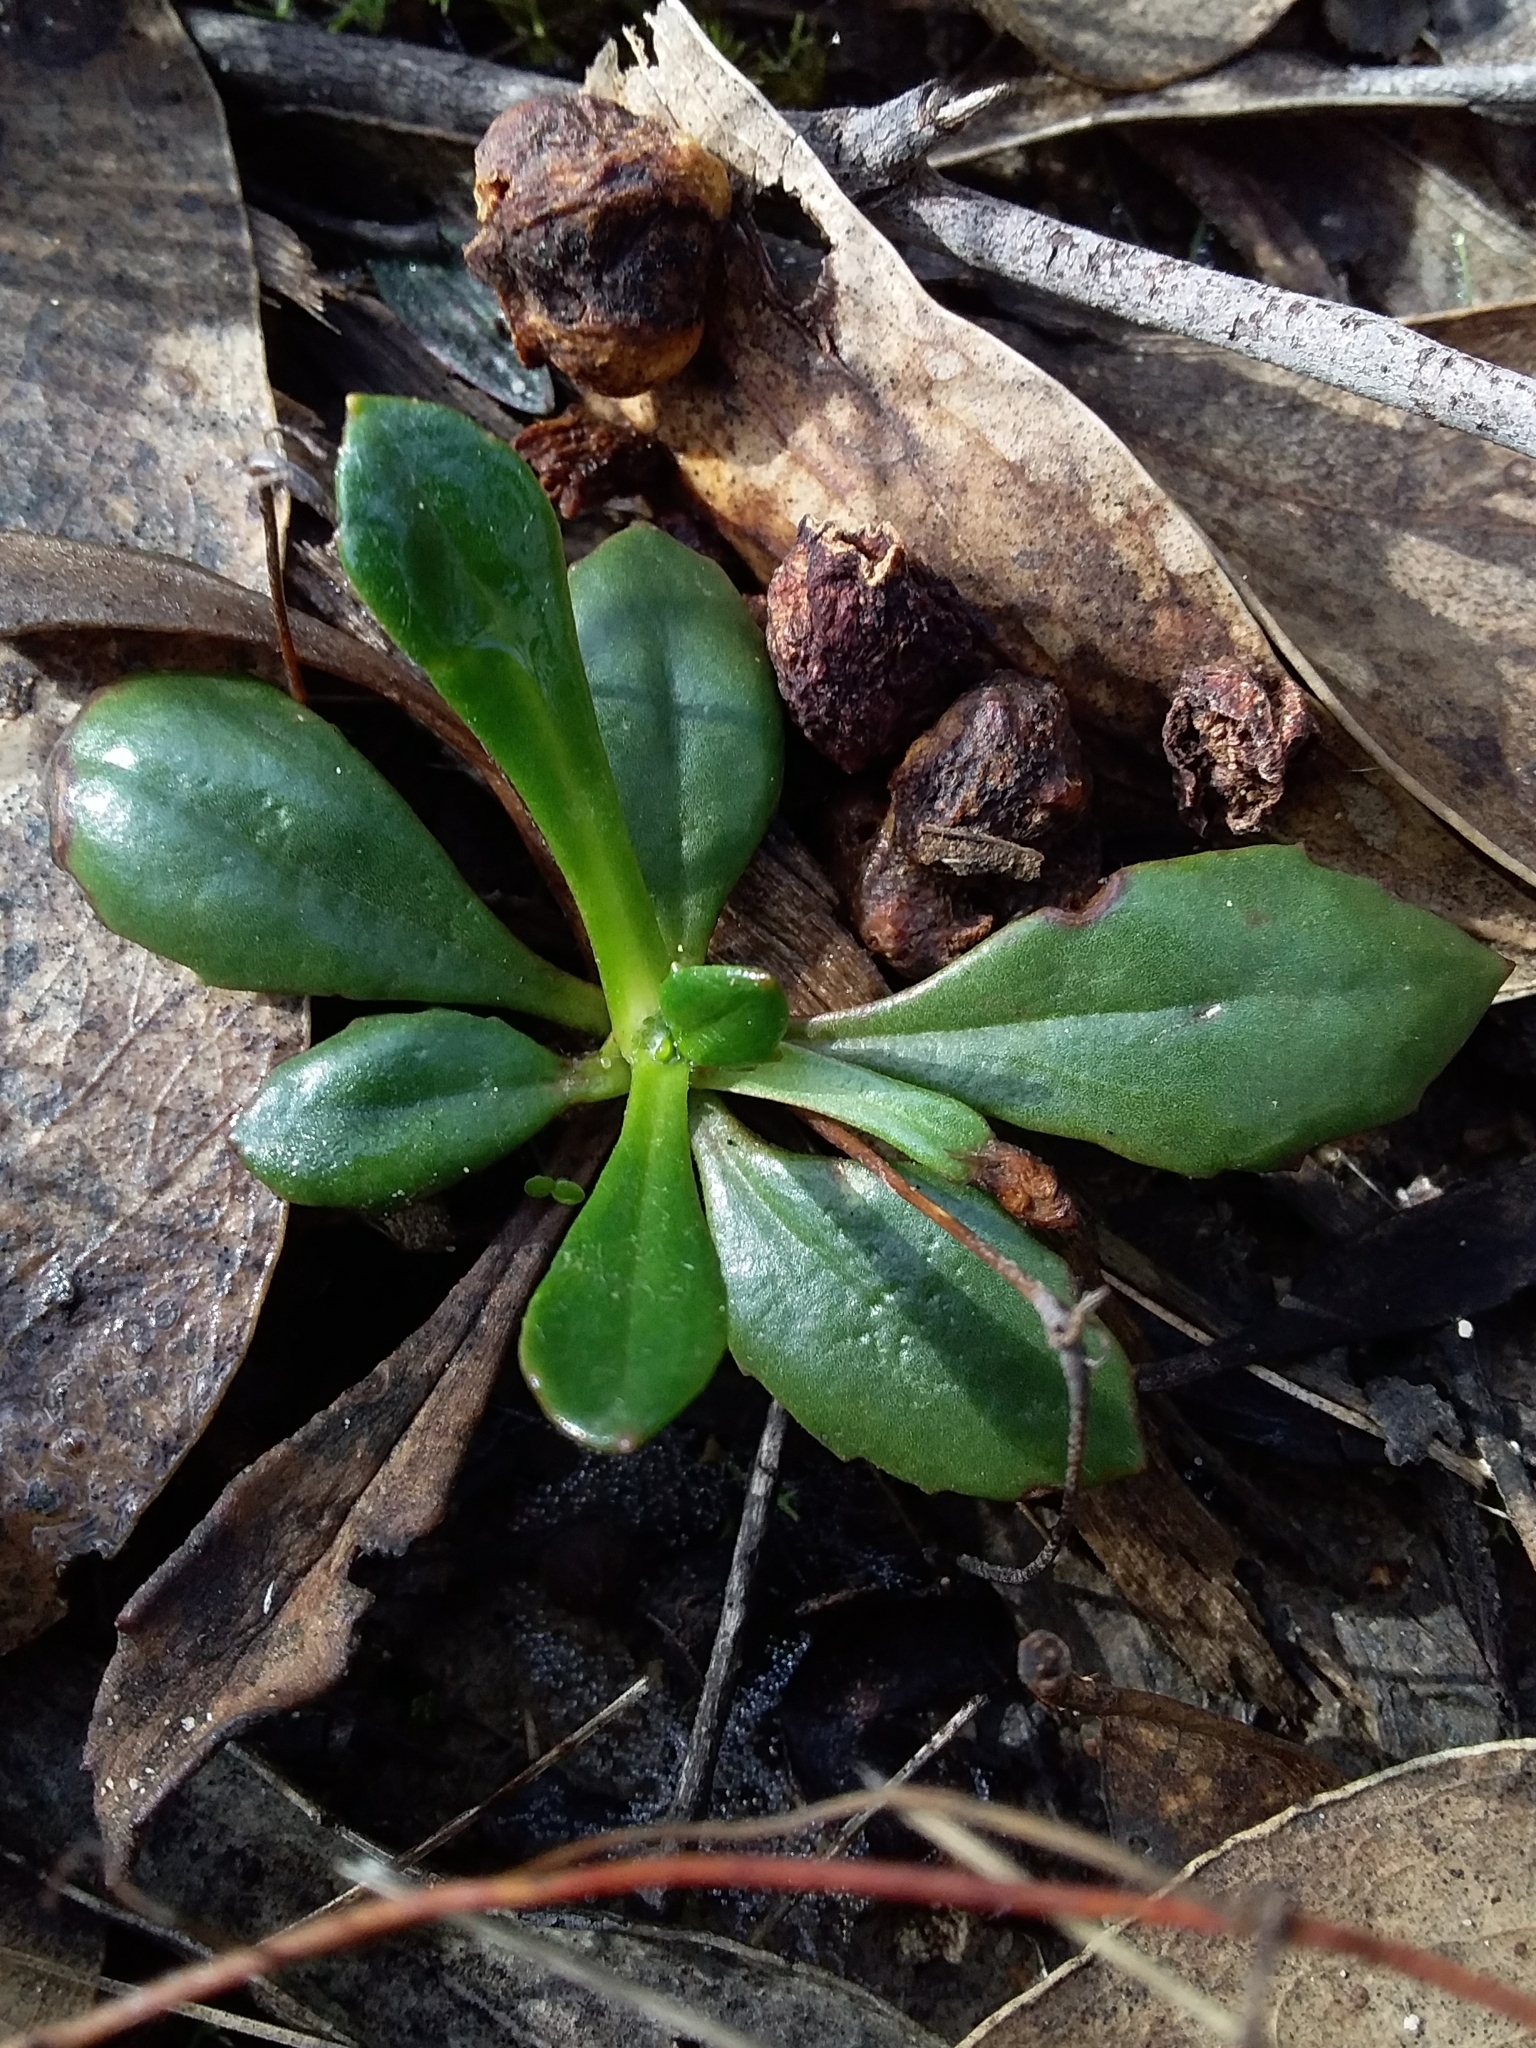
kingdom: Plantae
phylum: Tracheophyta
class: Magnoliopsida
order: Asterales
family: Goodeniaceae
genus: Goodenia
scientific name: Goodenia blackiana
